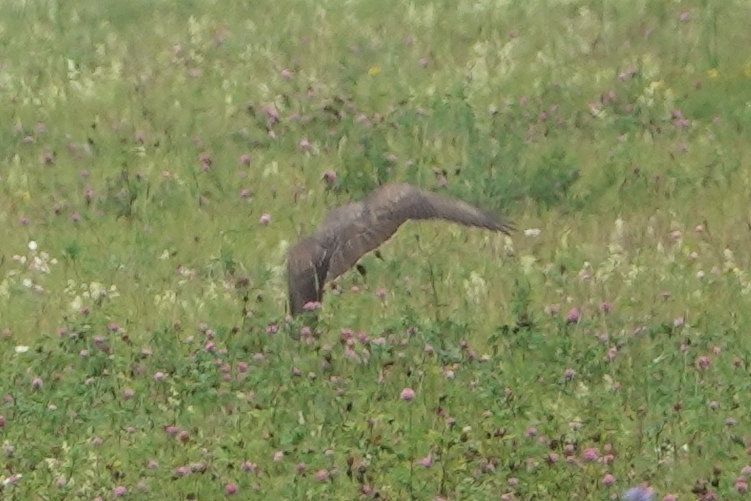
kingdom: Animalia
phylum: Chordata
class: Aves
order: Accipitriformes
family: Accipitridae
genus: Buteo
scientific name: Buteo buteo
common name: Common buzzard
